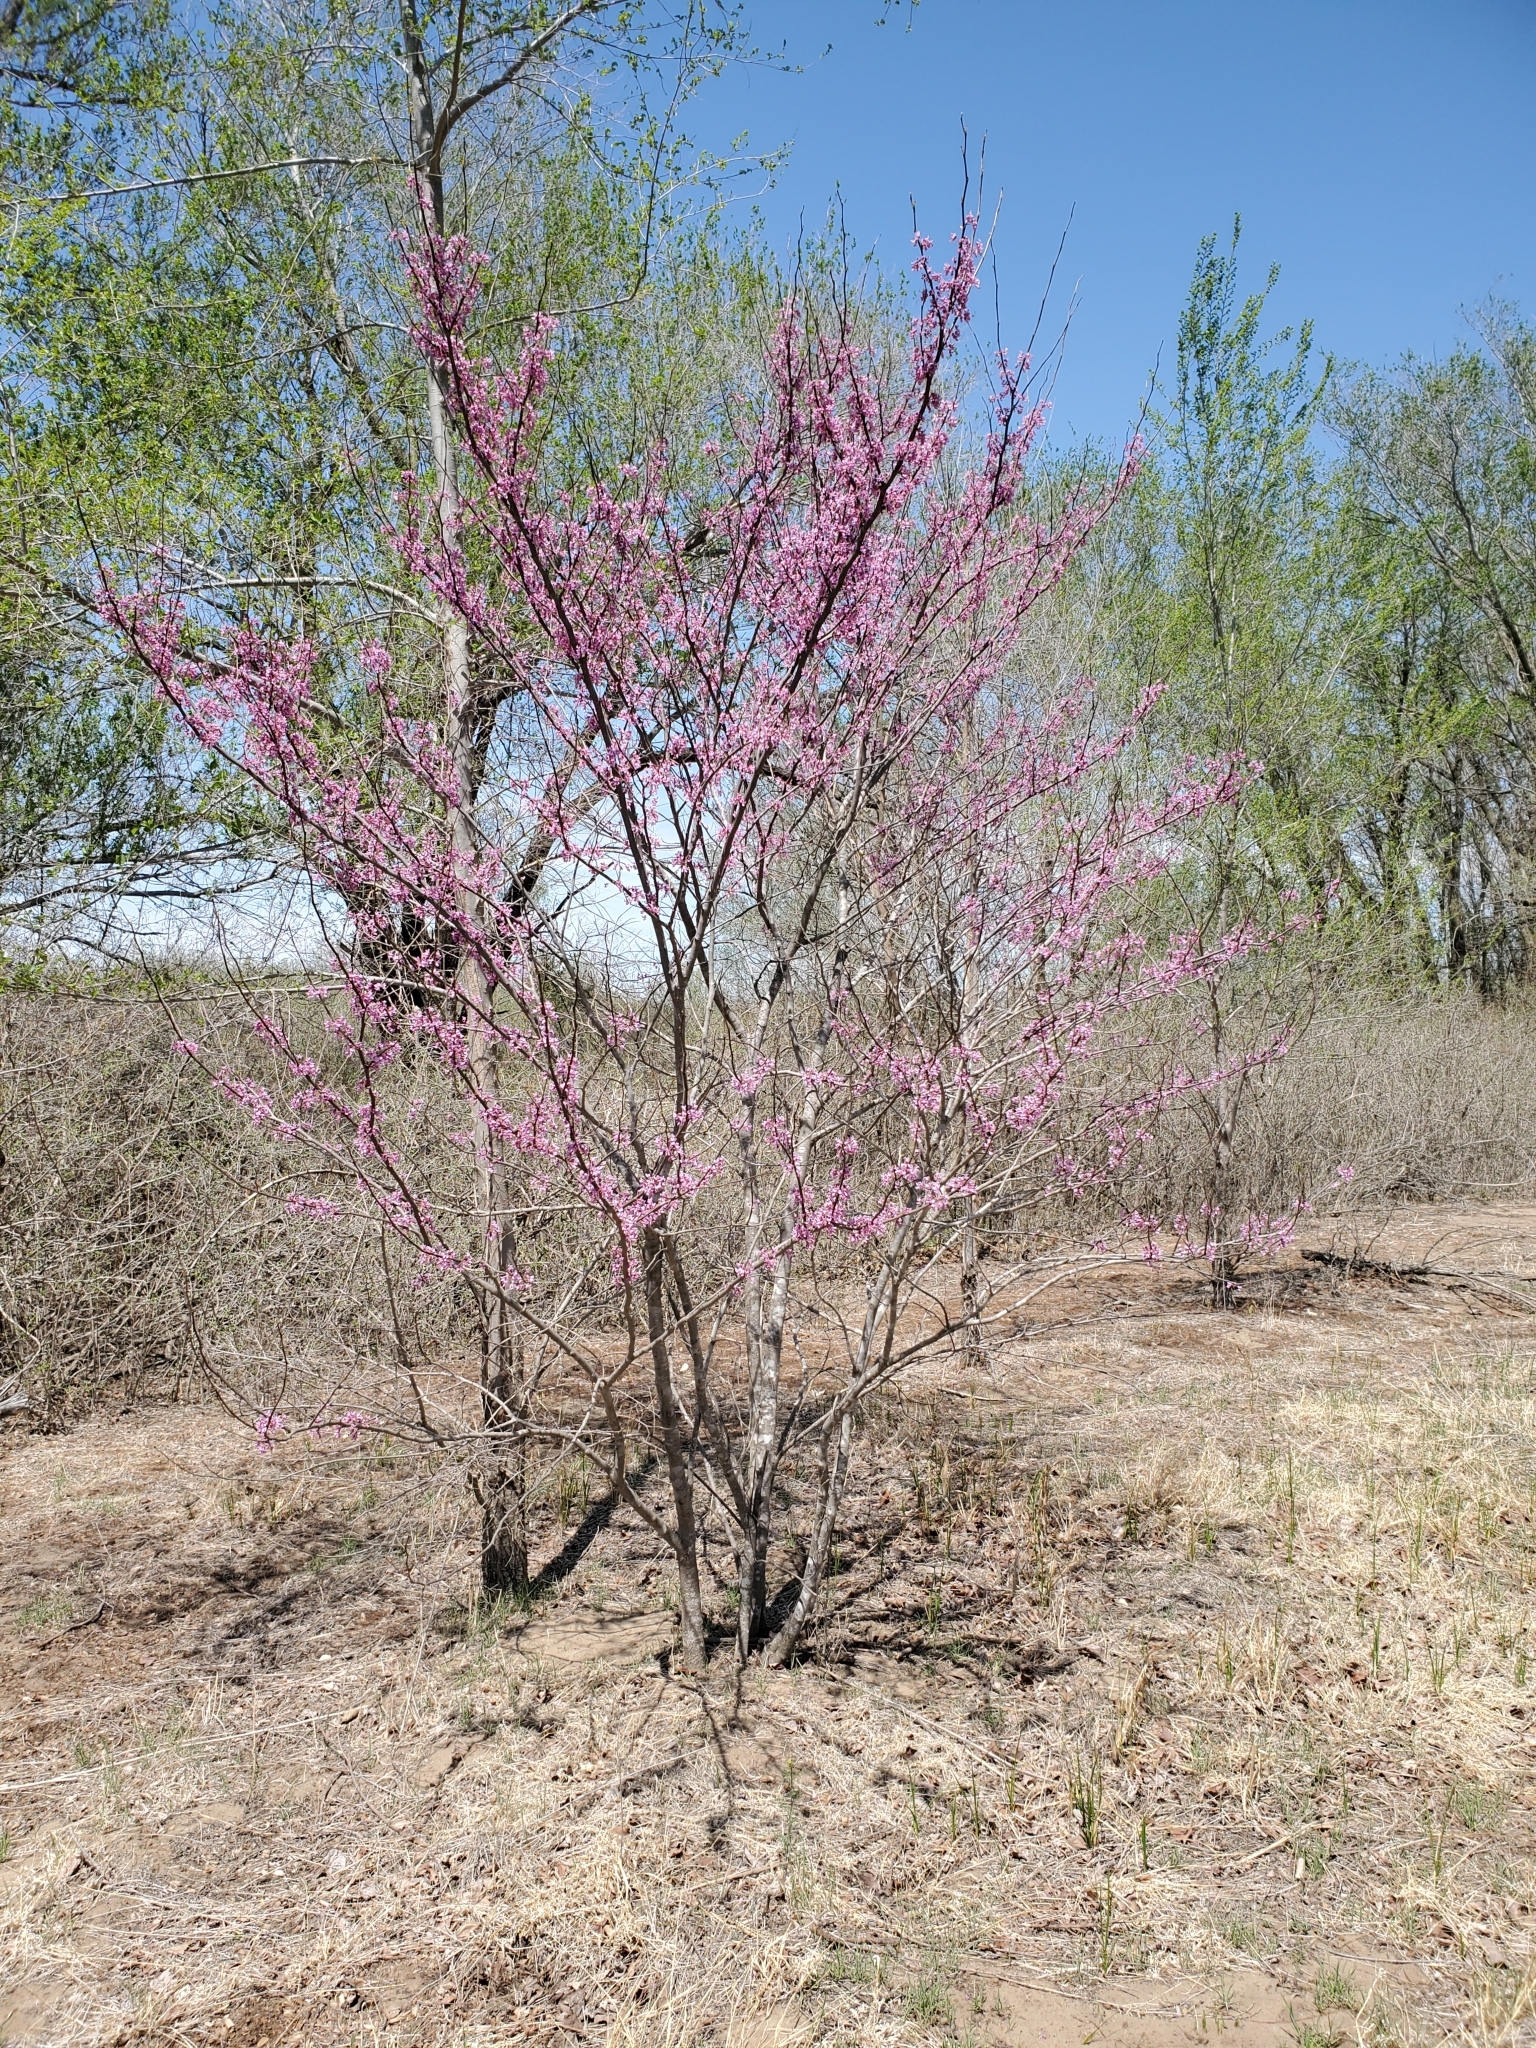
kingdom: Plantae
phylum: Tracheophyta
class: Magnoliopsida
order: Fabales
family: Fabaceae
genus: Cercis
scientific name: Cercis canadensis
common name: Eastern redbud
